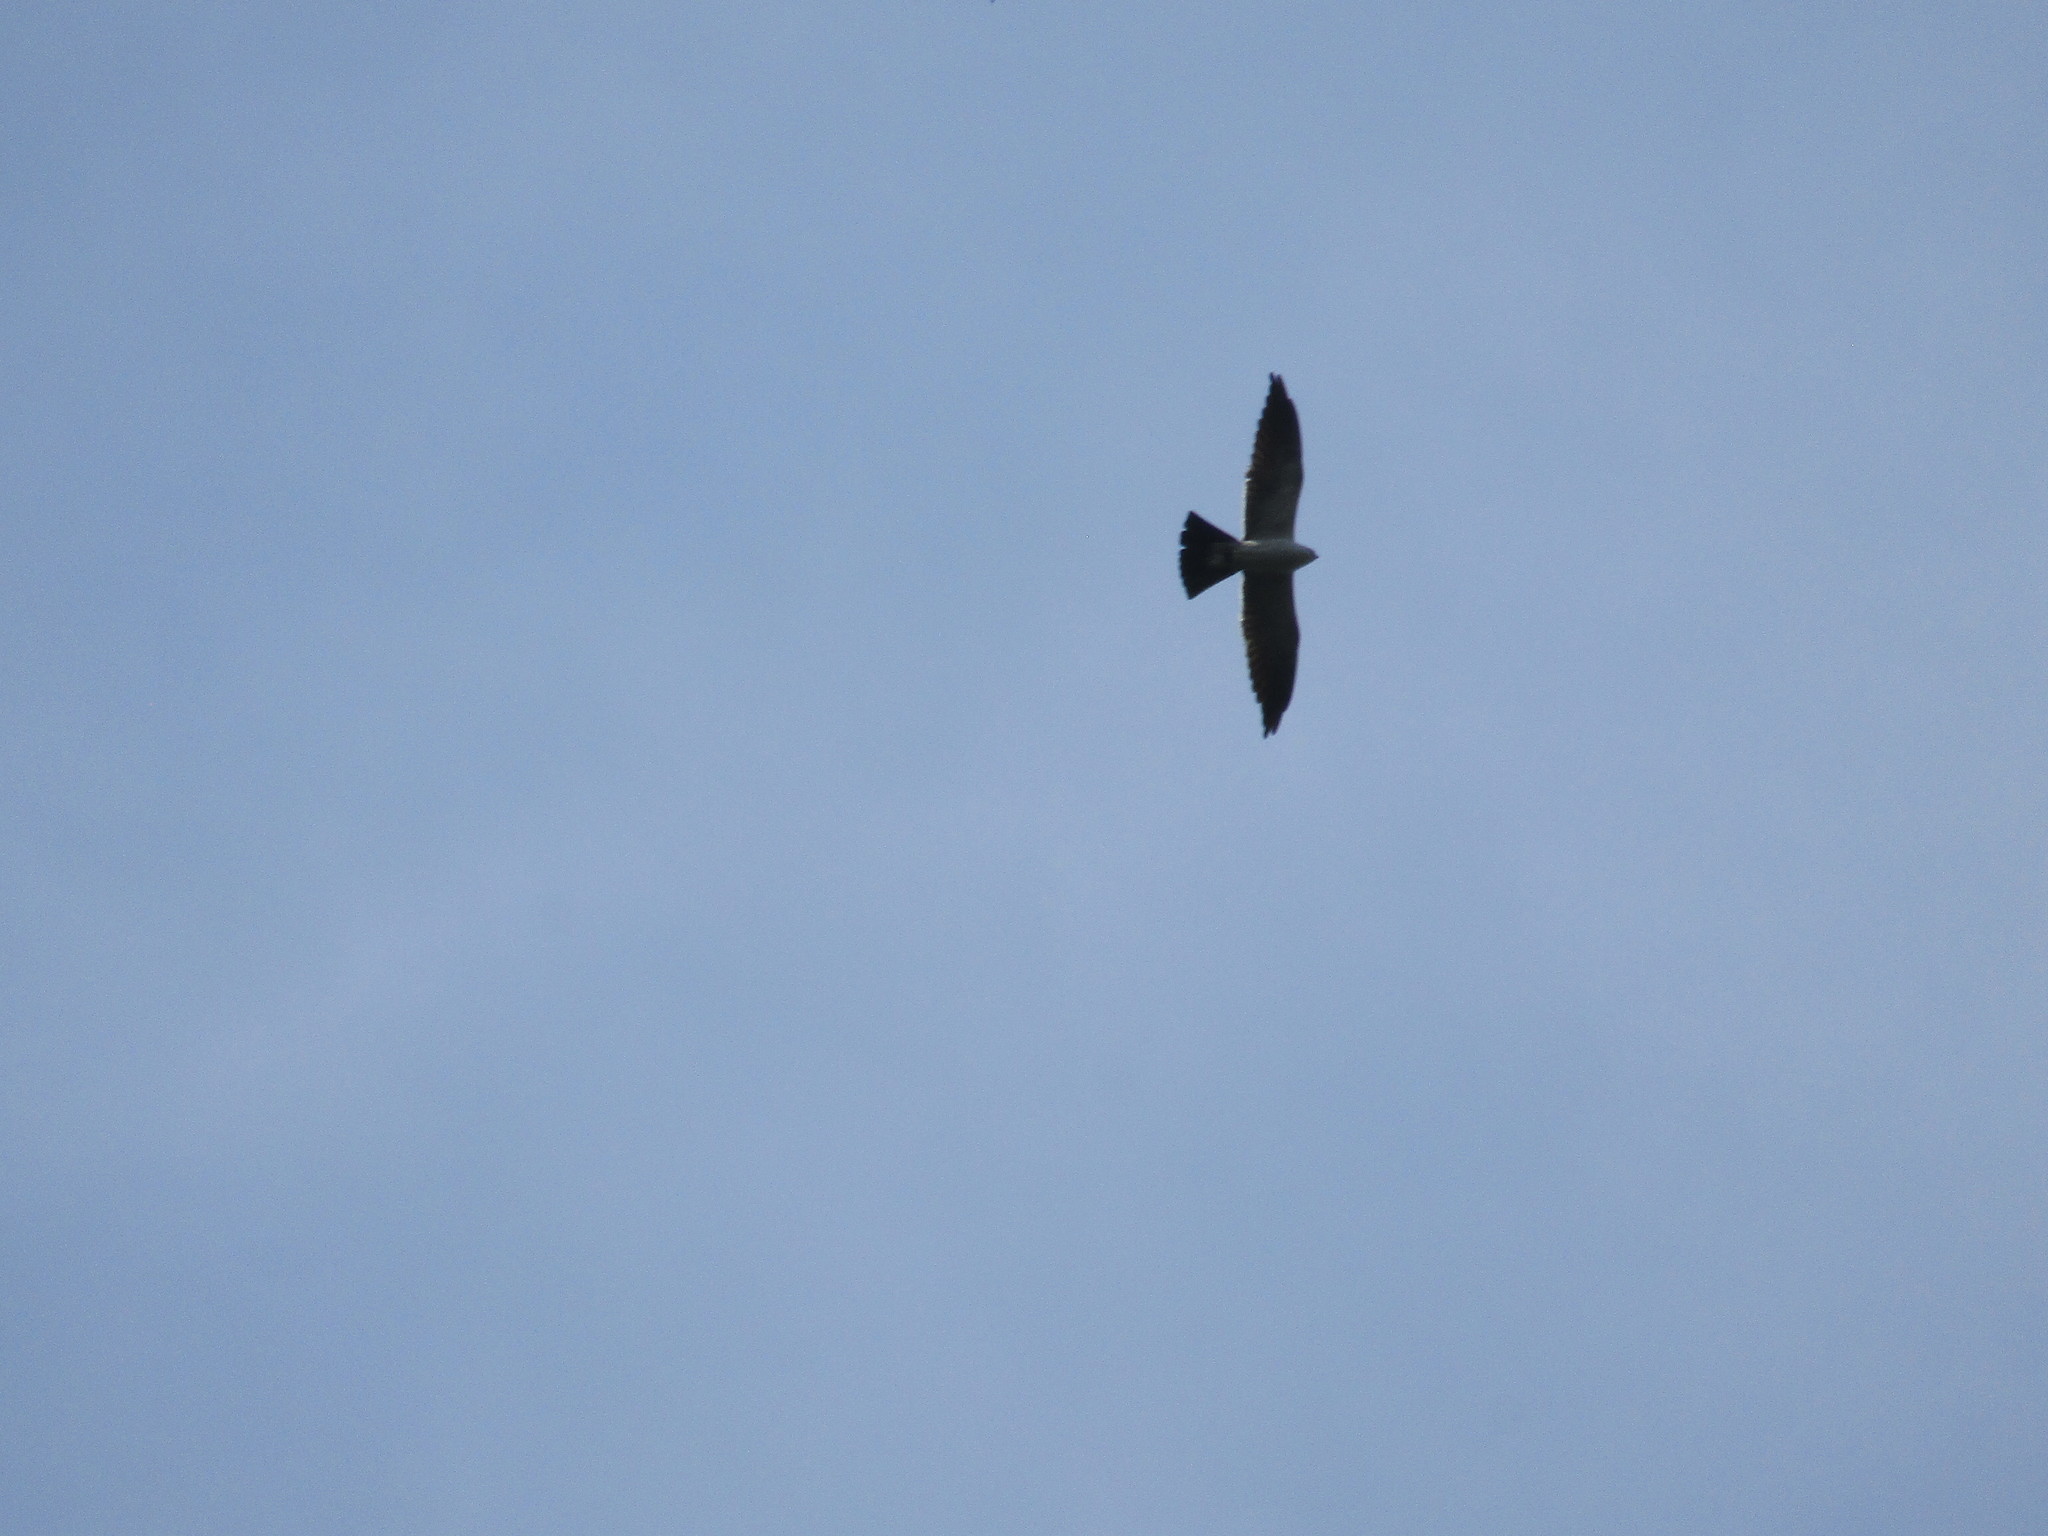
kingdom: Animalia
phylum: Chordata
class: Aves
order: Accipitriformes
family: Accipitridae
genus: Ictinia
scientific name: Ictinia mississippiensis
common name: Mississippi kite
